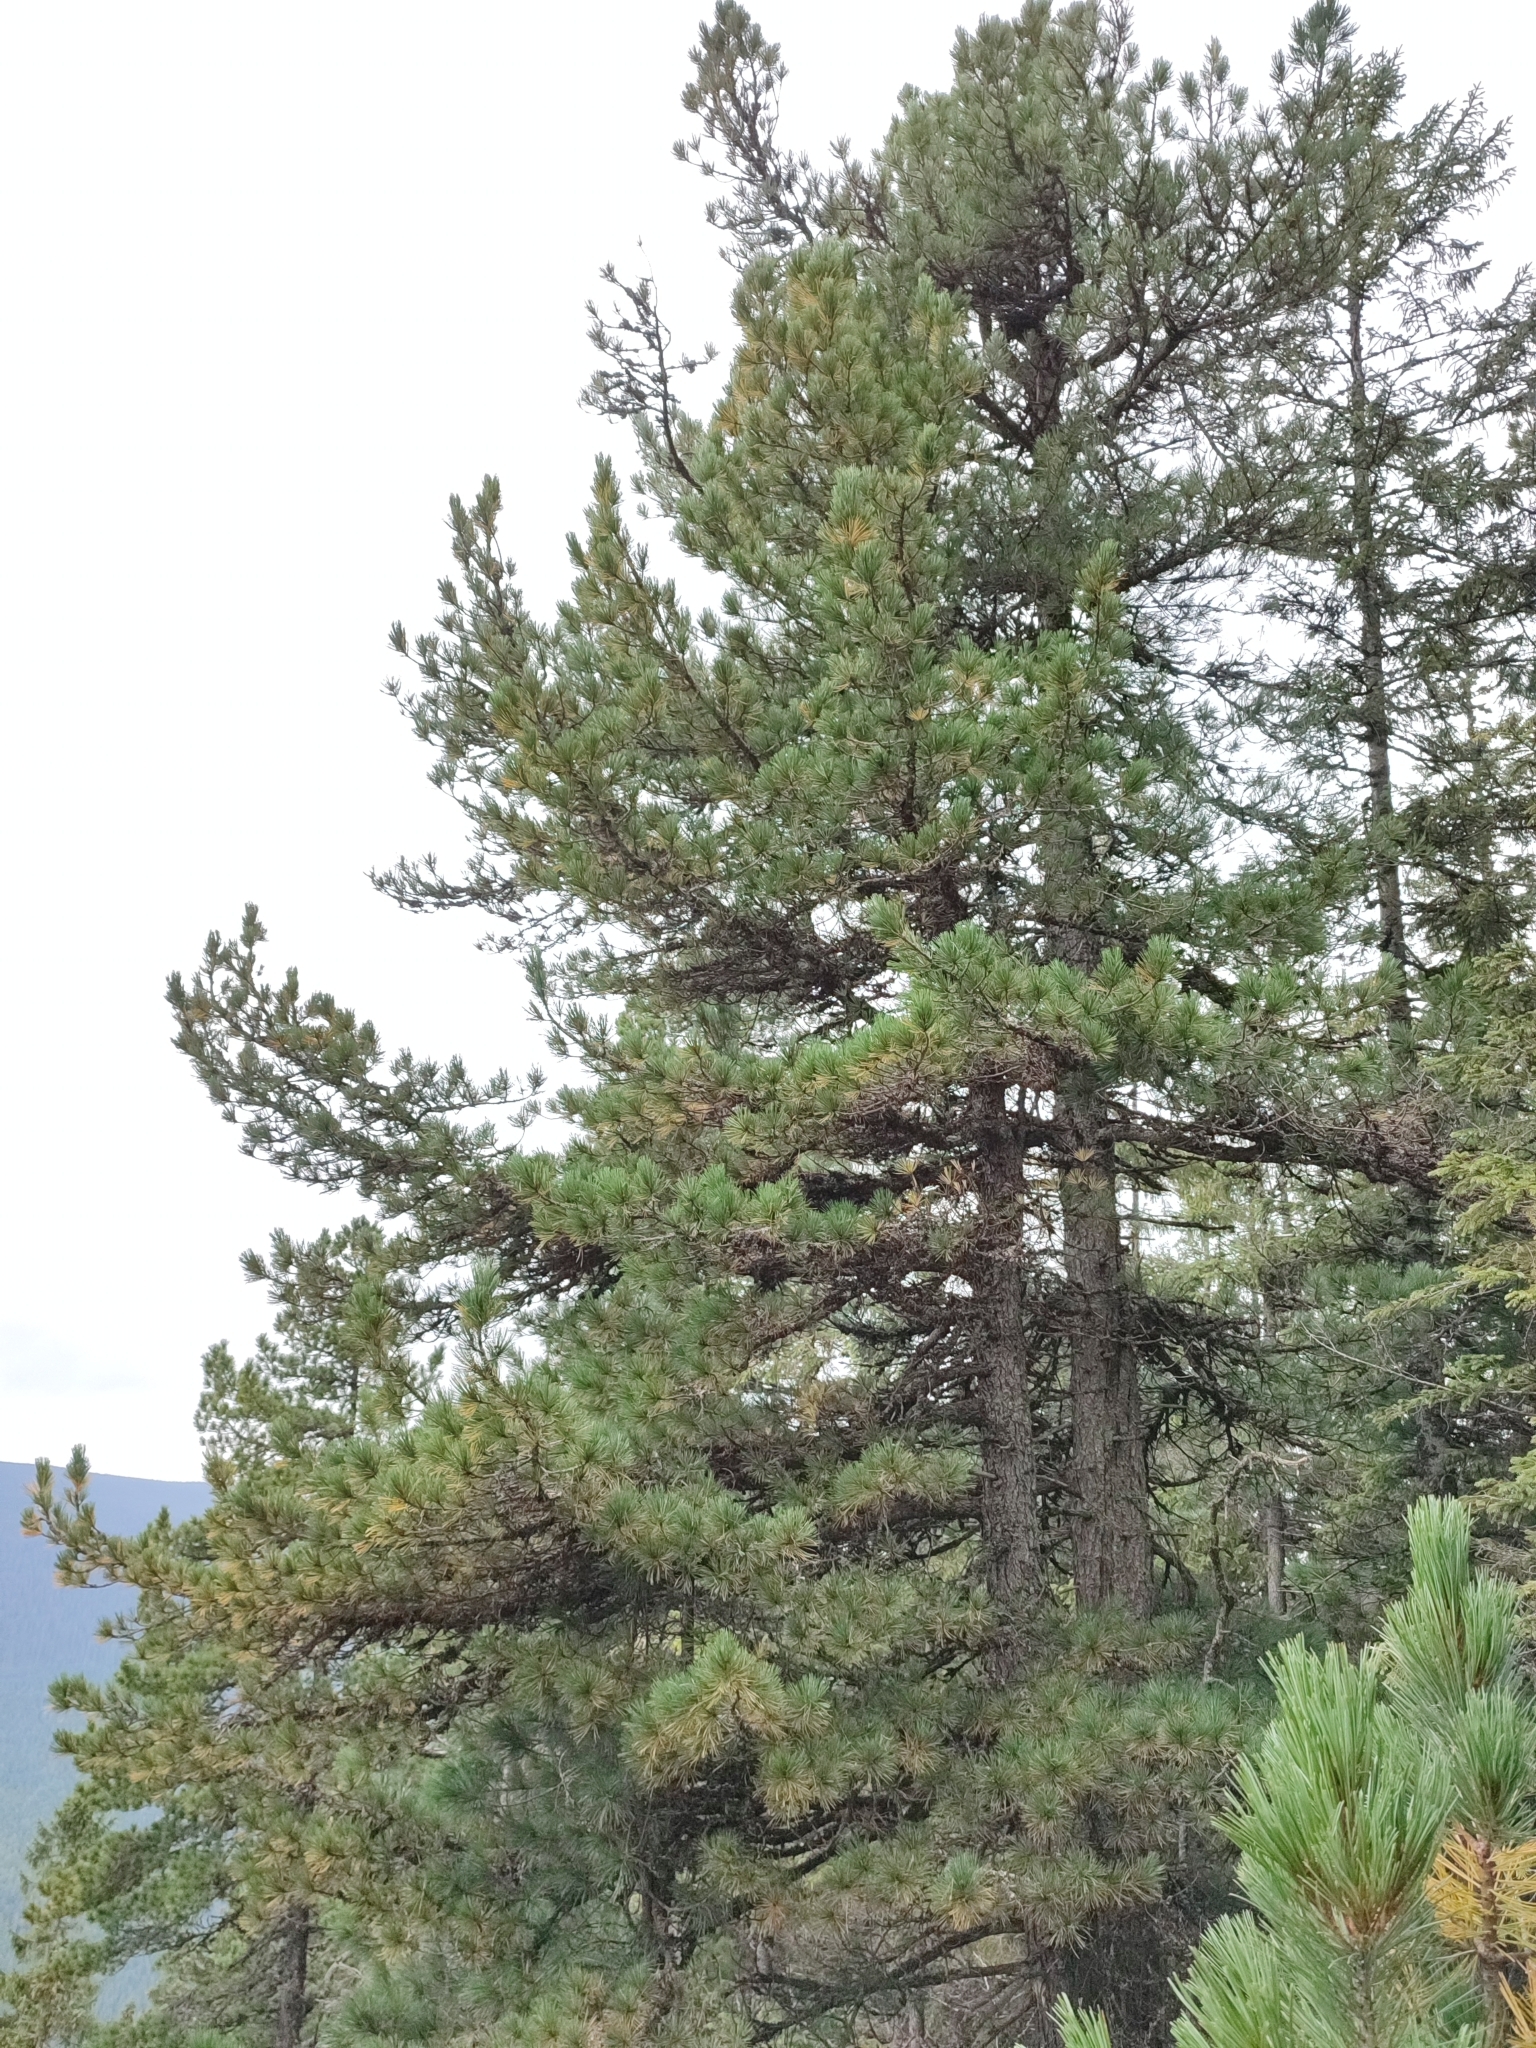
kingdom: Plantae
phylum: Tracheophyta
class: Pinopsida
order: Pinales
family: Pinaceae
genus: Pinus
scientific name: Pinus cembra
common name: Arolla pine
